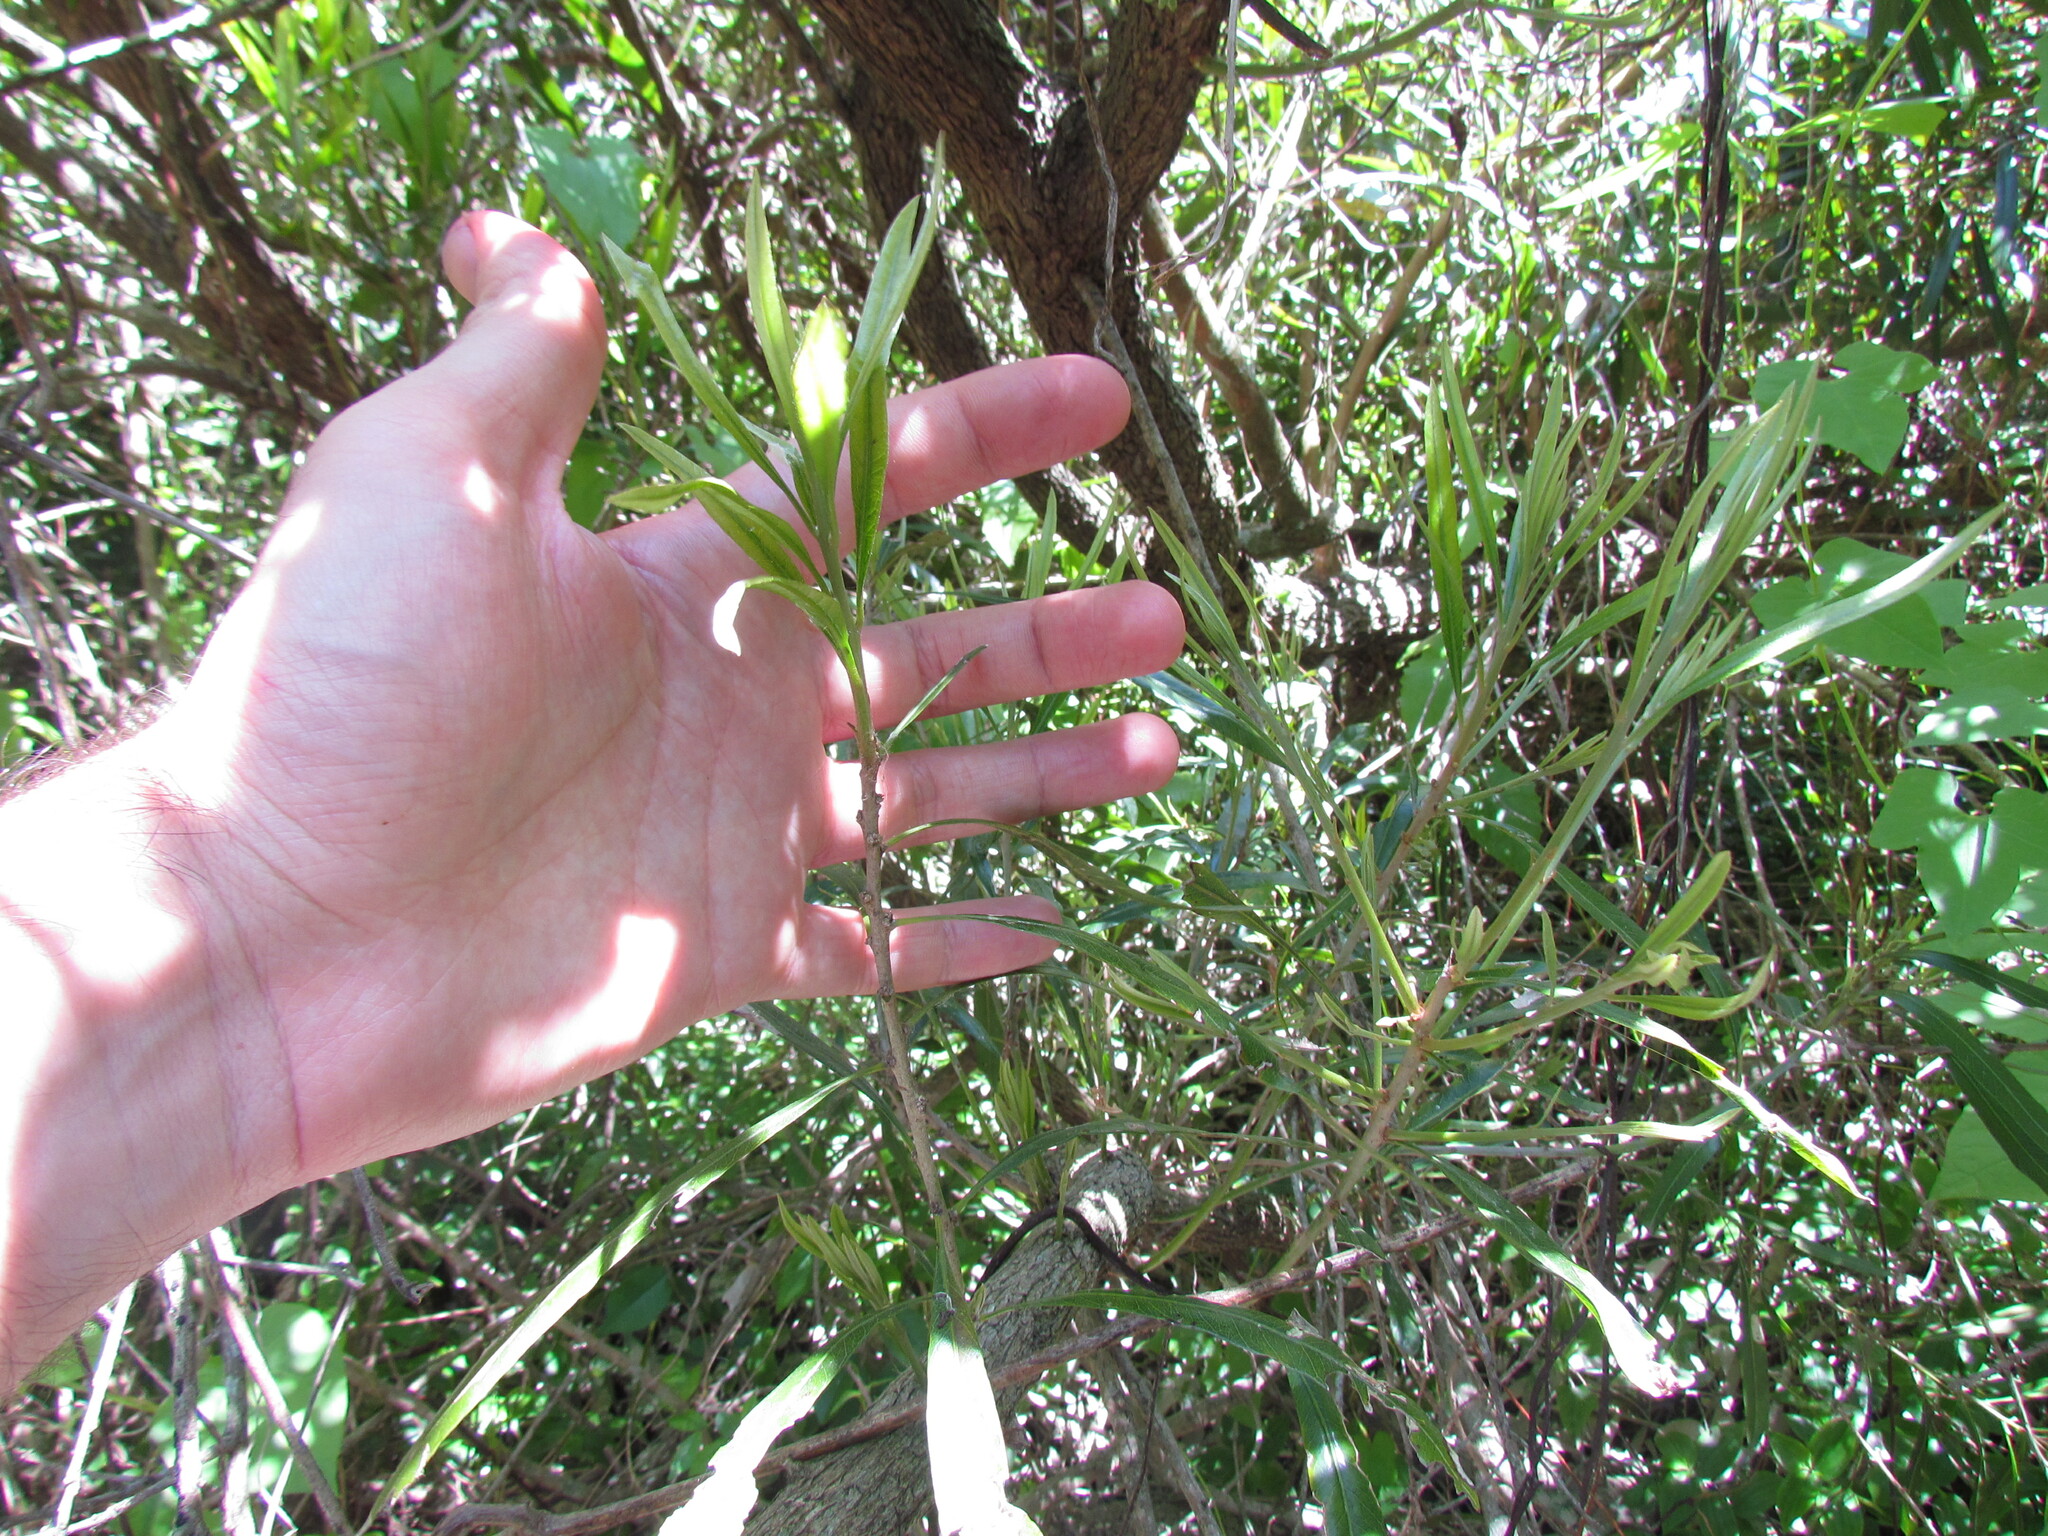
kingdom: Plantae
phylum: Tracheophyta
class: Magnoliopsida
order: Ericales
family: Sapotaceae
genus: Labatia
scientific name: Labatia salicifolia
